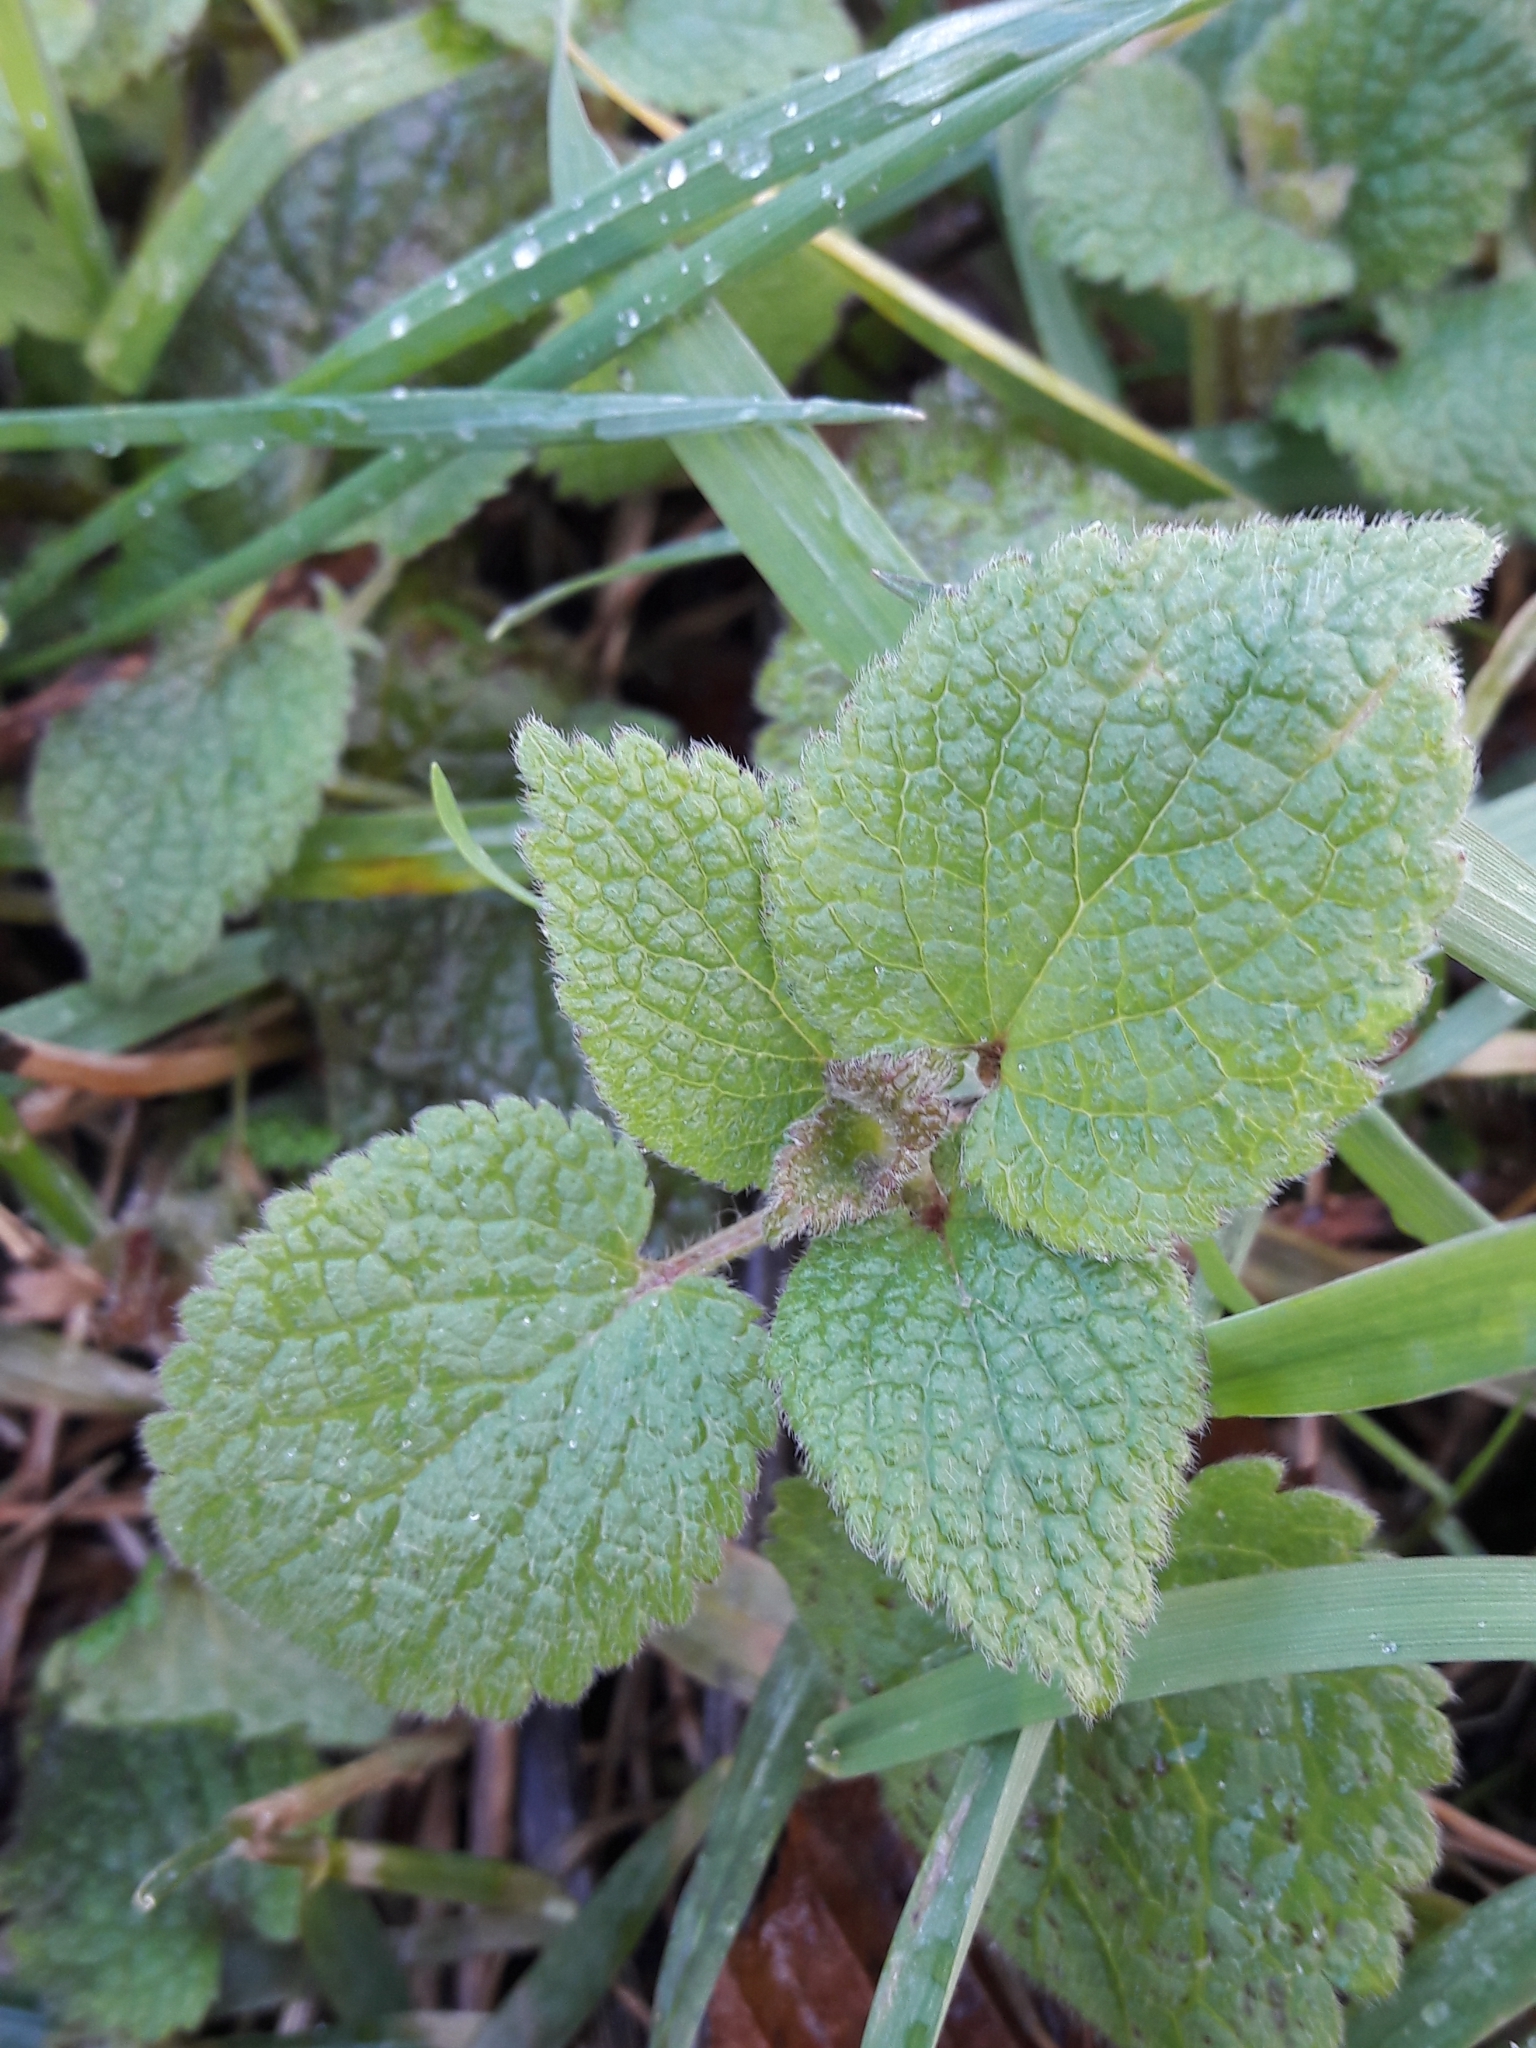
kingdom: Plantae
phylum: Tracheophyta
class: Magnoliopsida
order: Lamiales
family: Lamiaceae
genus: Lamium
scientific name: Lamium purpureum
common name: Red dead-nettle
